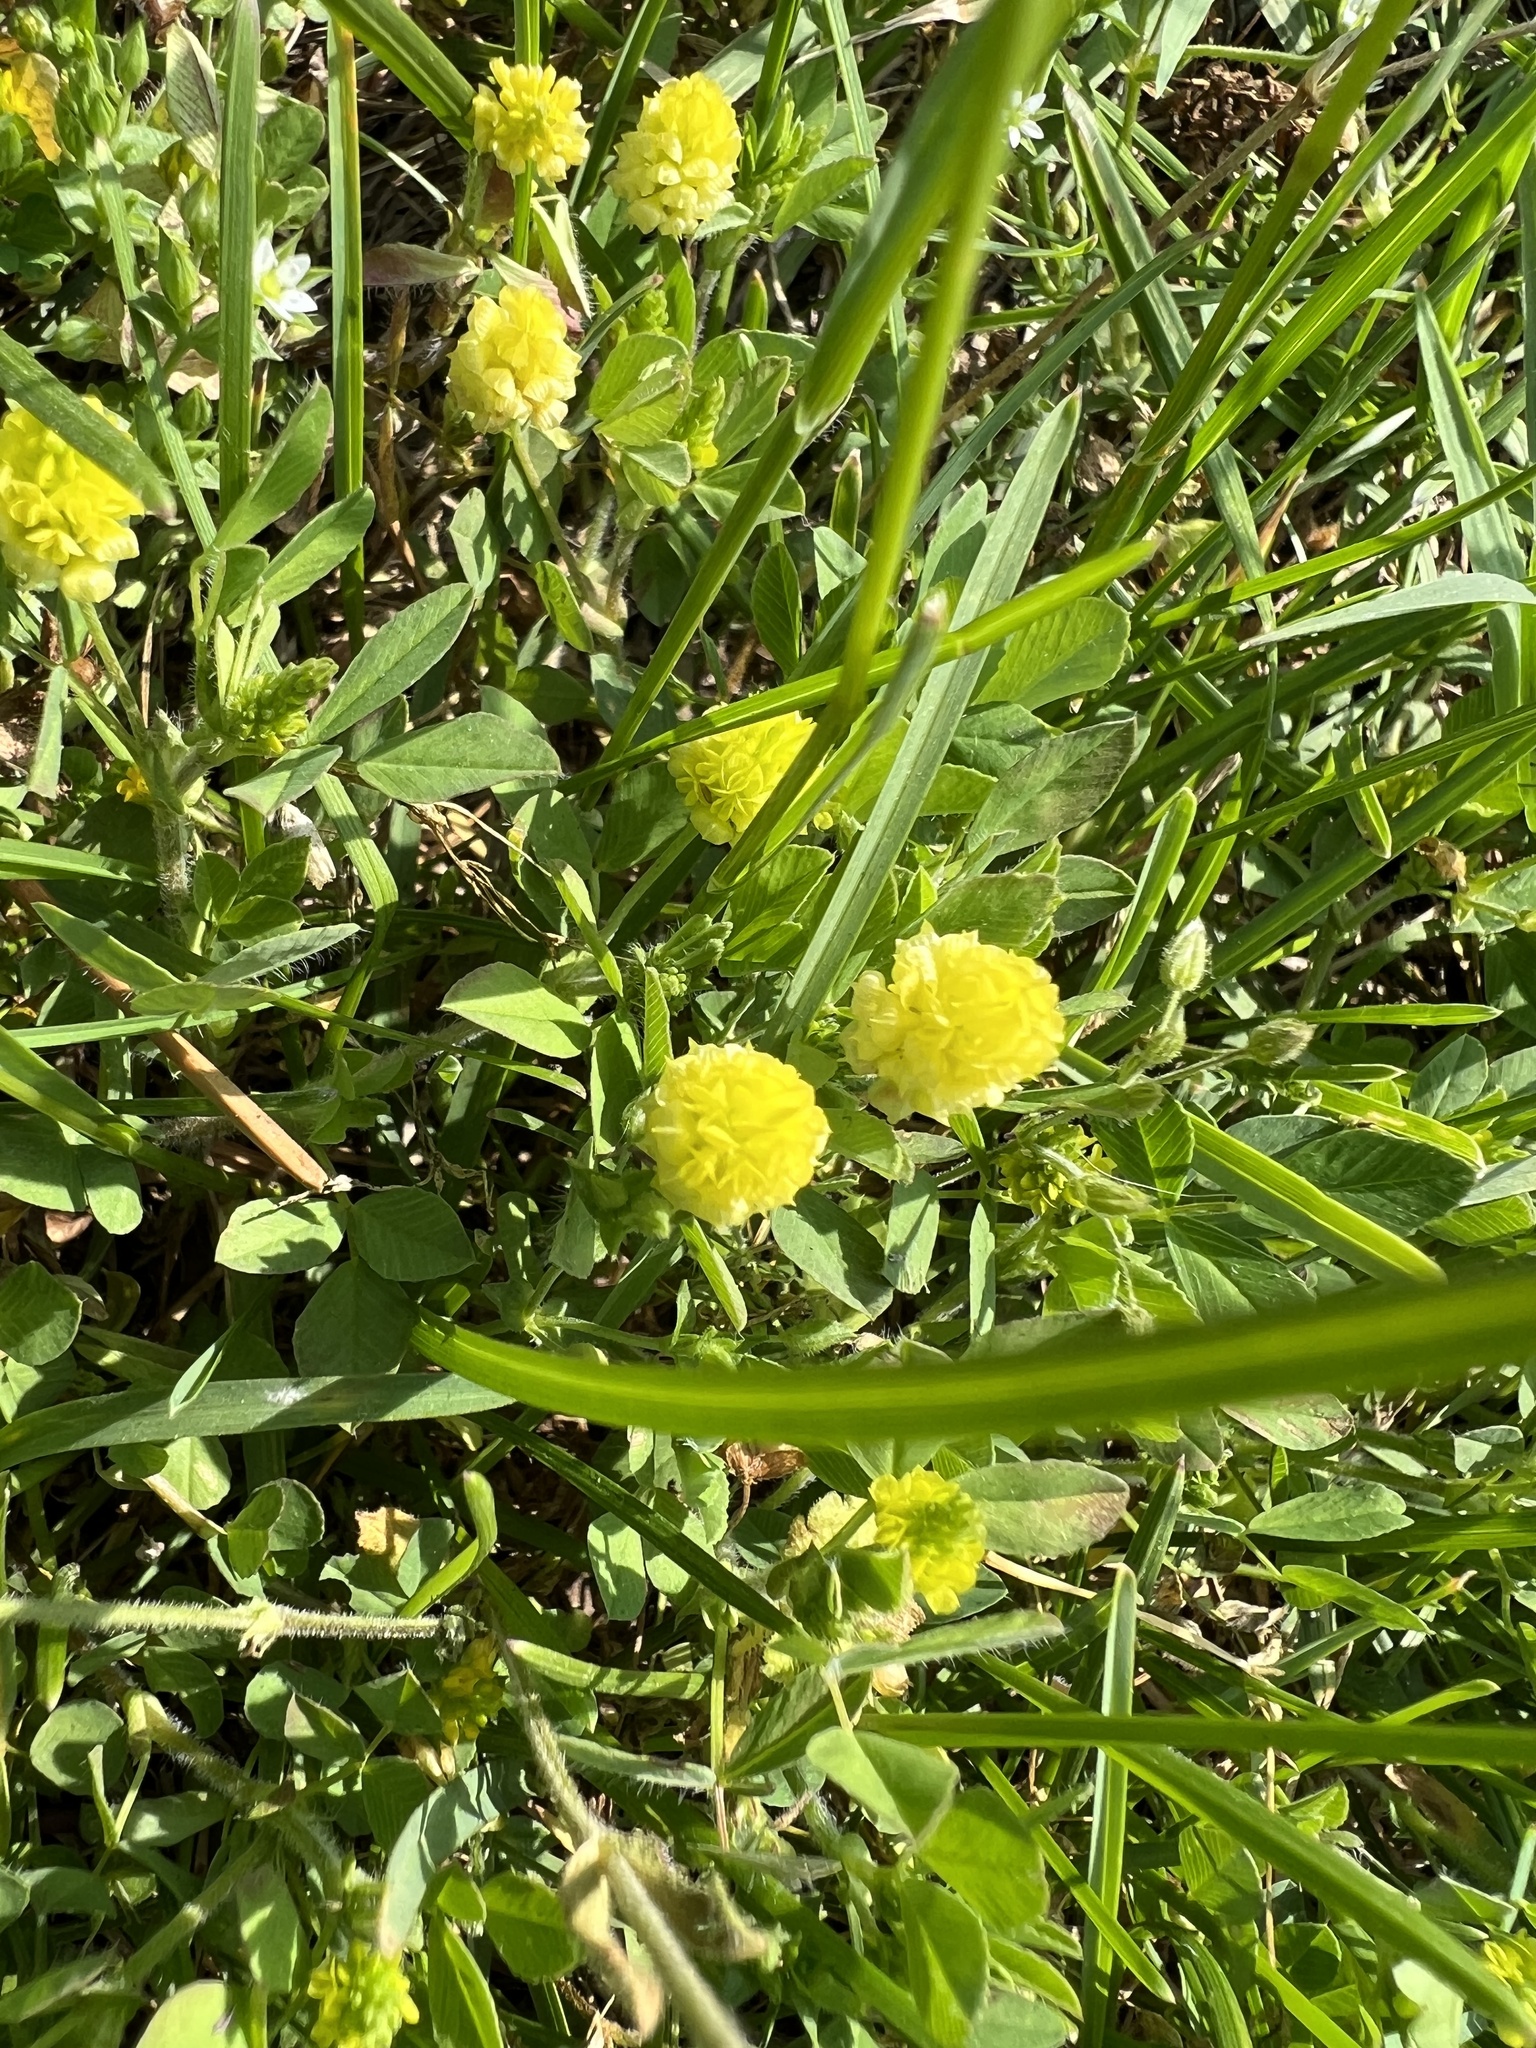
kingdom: Plantae
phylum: Tracheophyta
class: Magnoliopsida
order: Fabales
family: Fabaceae
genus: Trifolium
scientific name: Trifolium campestre
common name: Field clover
